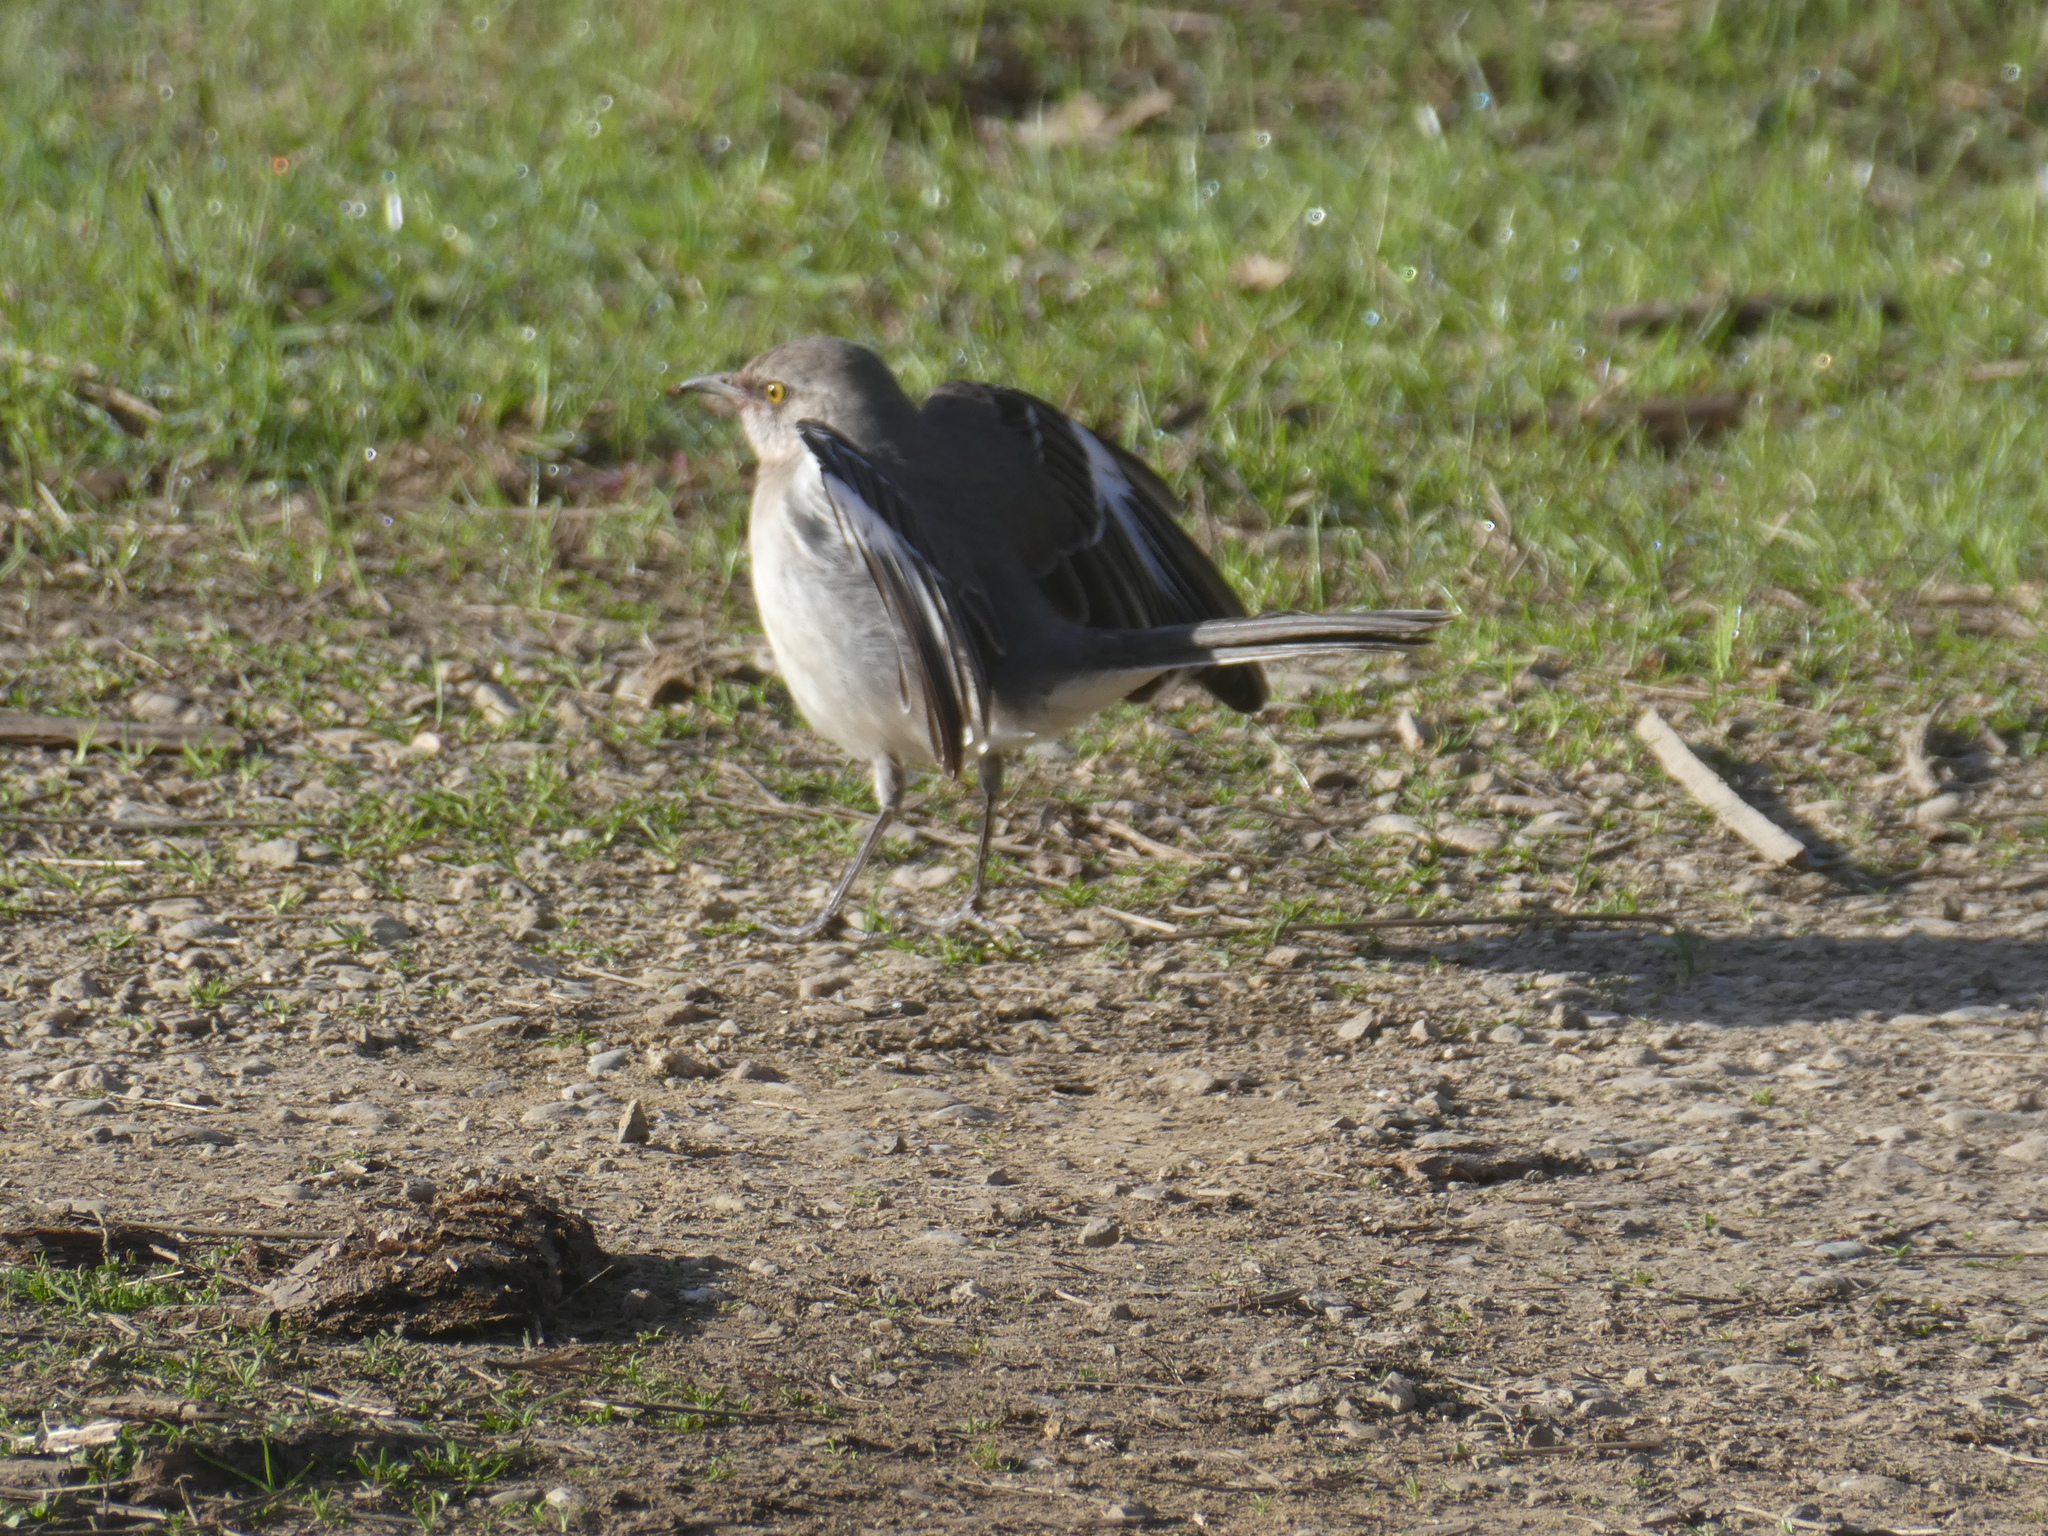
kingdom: Animalia
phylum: Chordata
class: Aves
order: Passeriformes
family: Mimidae
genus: Mimus
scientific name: Mimus polyglottos
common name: Northern mockingbird
